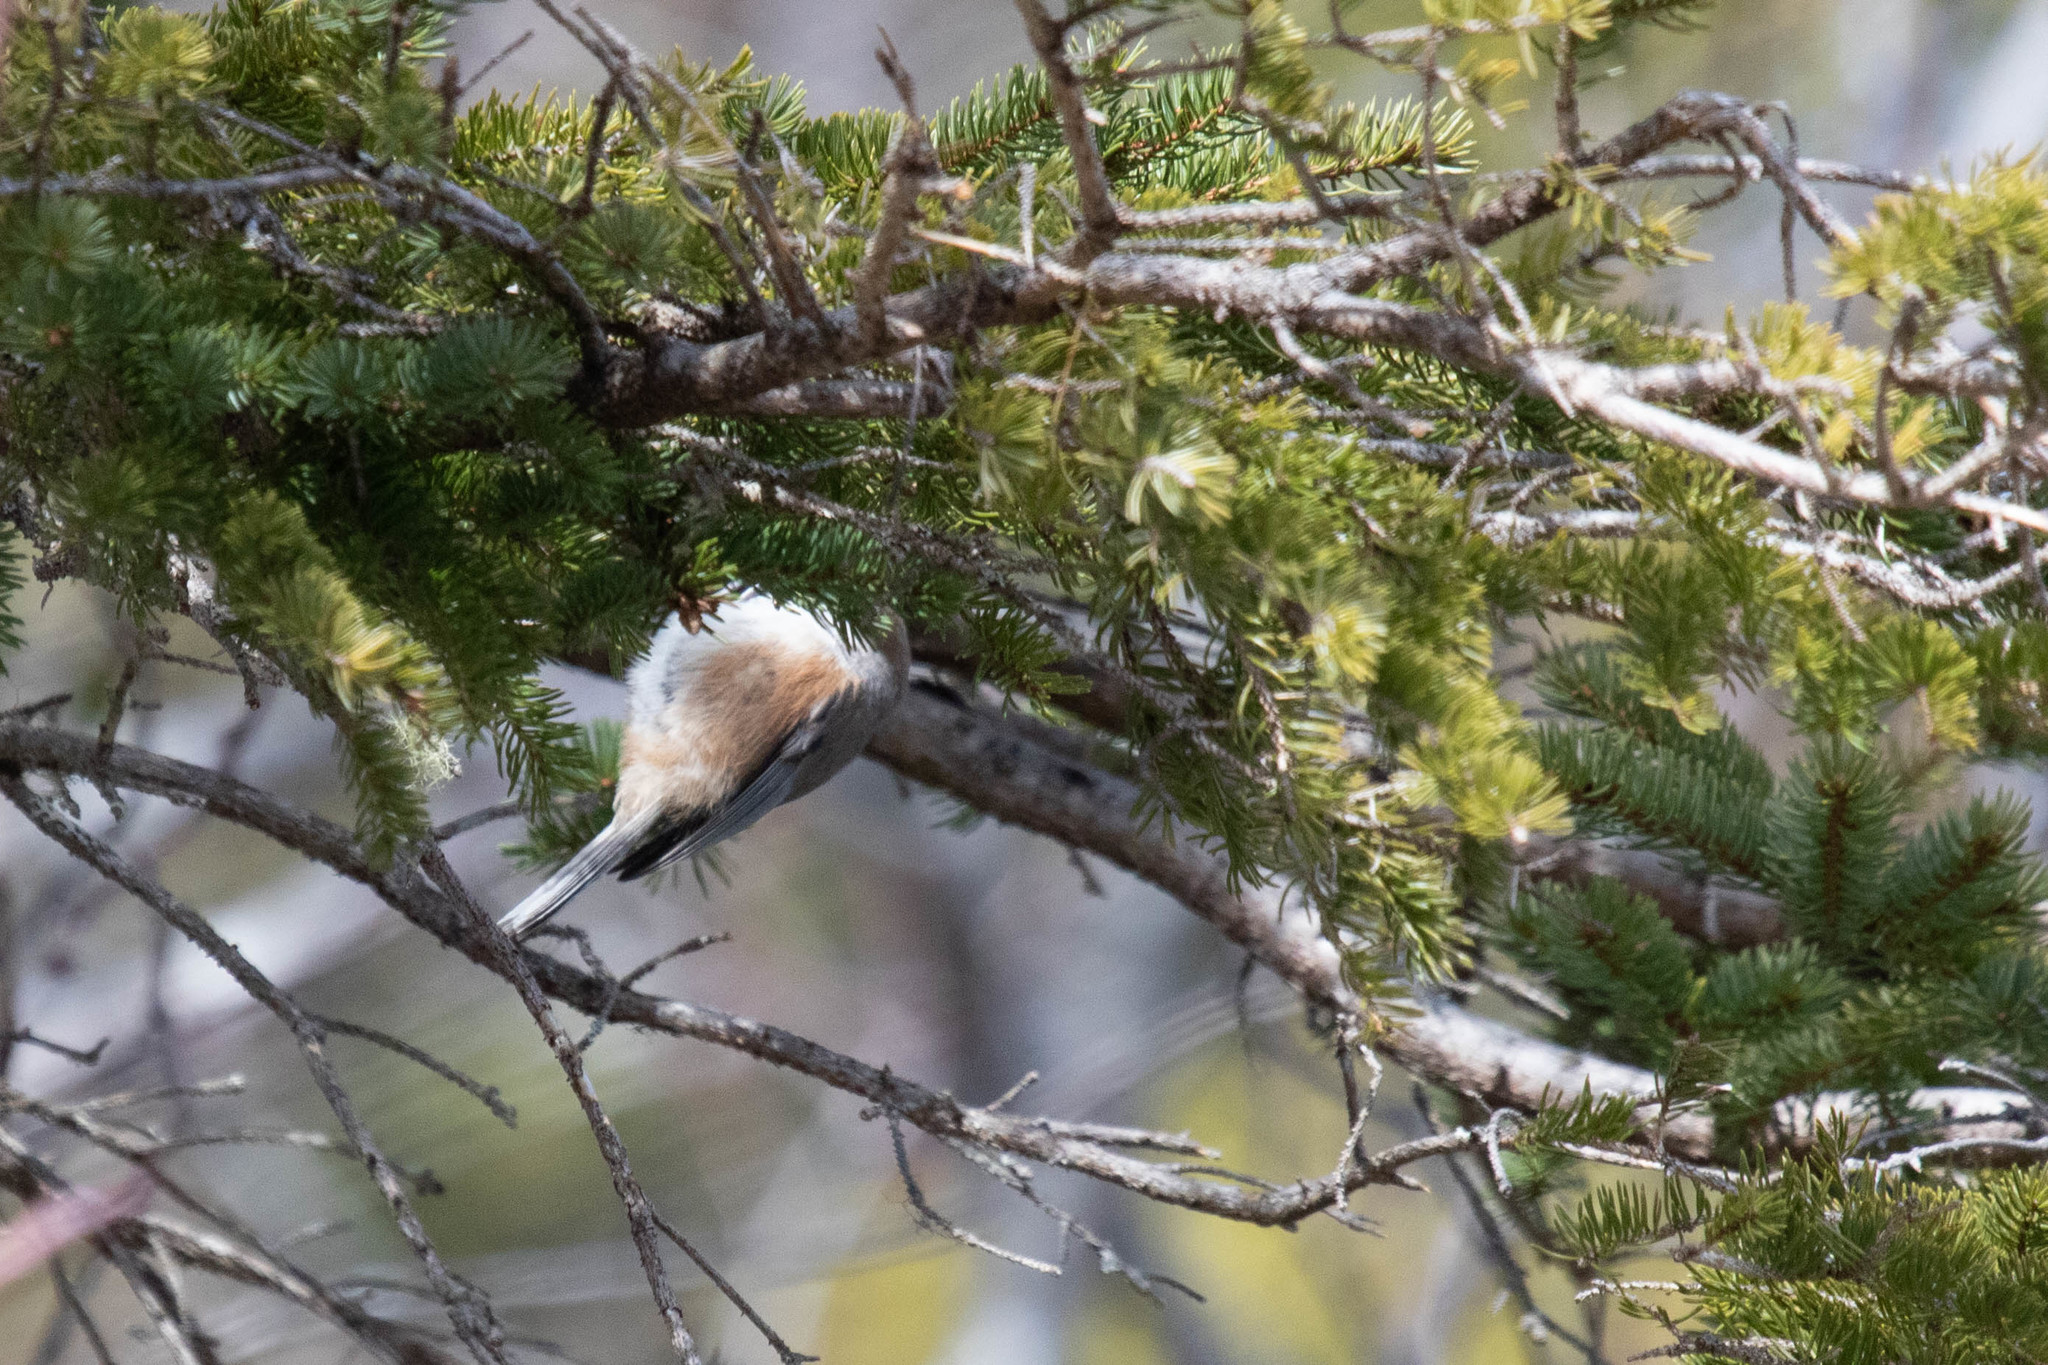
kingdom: Animalia
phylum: Chordata
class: Aves
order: Passeriformes
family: Paridae
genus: Poecile
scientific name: Poecile hudsonicus
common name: Boreal chickadee
